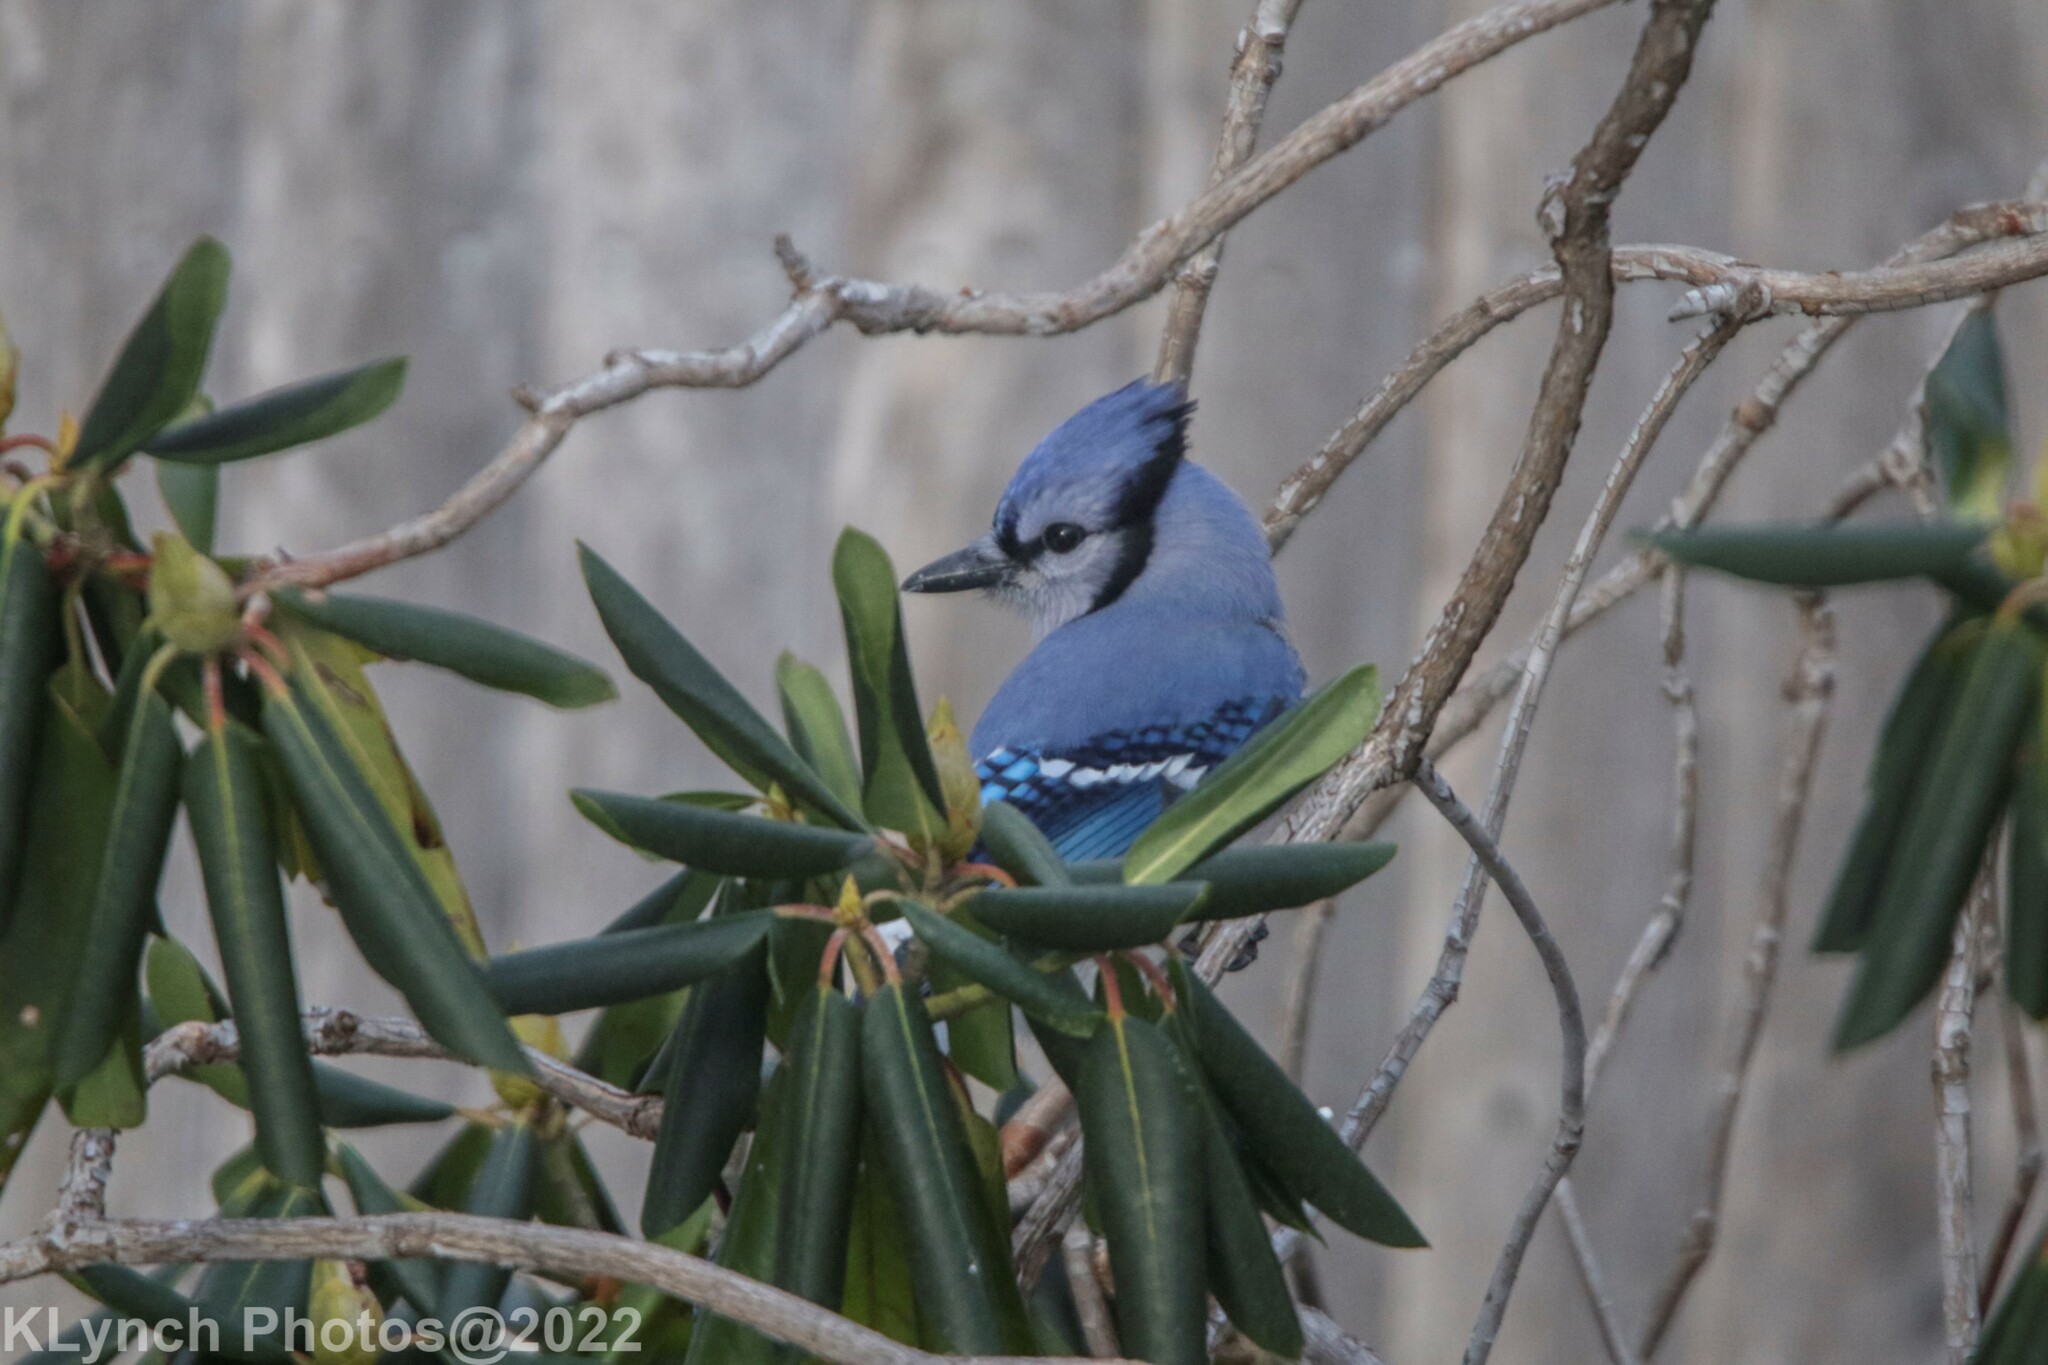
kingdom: Animalia
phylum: Chordata
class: Aves
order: Passeriformes
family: Corvidae
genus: Cyanocitta
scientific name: Cyanocitta cristata
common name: Blue jay
